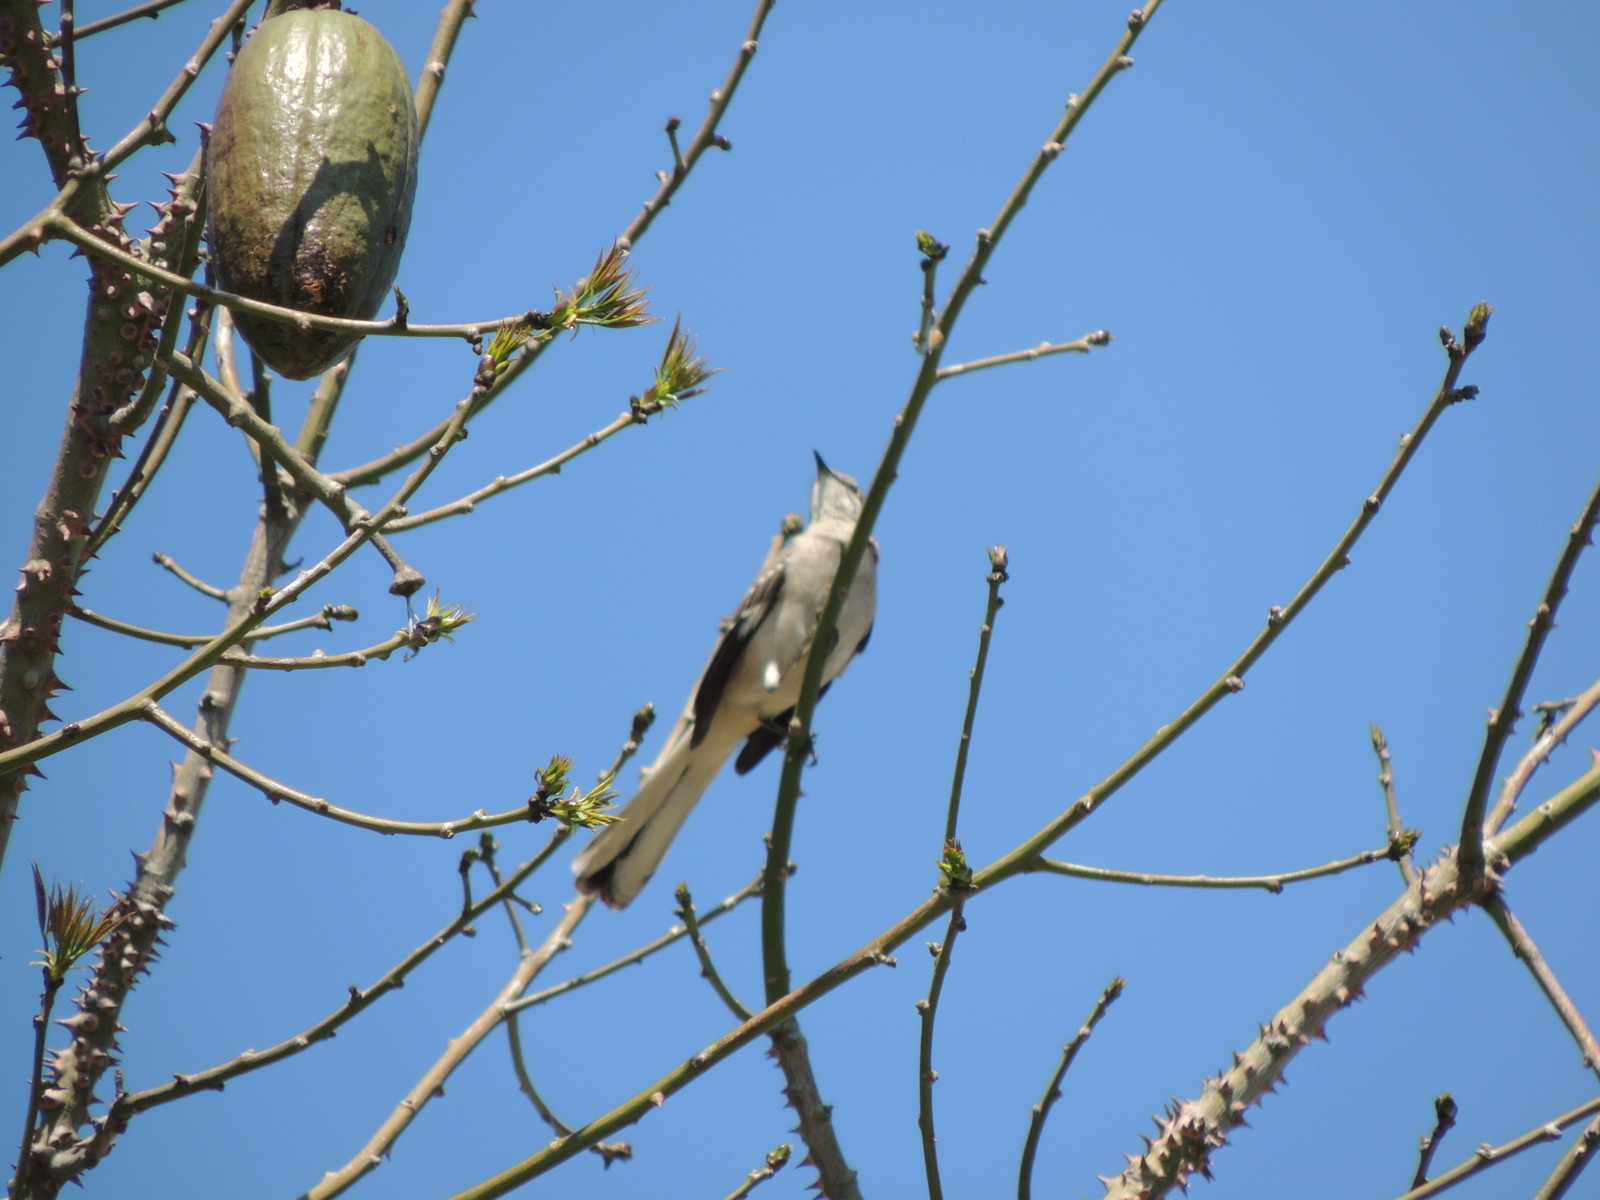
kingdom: Animalia
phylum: Chordata
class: Aves
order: Passeriformes
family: Mimidae
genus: Mimus
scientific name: Mimus polyglottos
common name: Northern mockingbird
